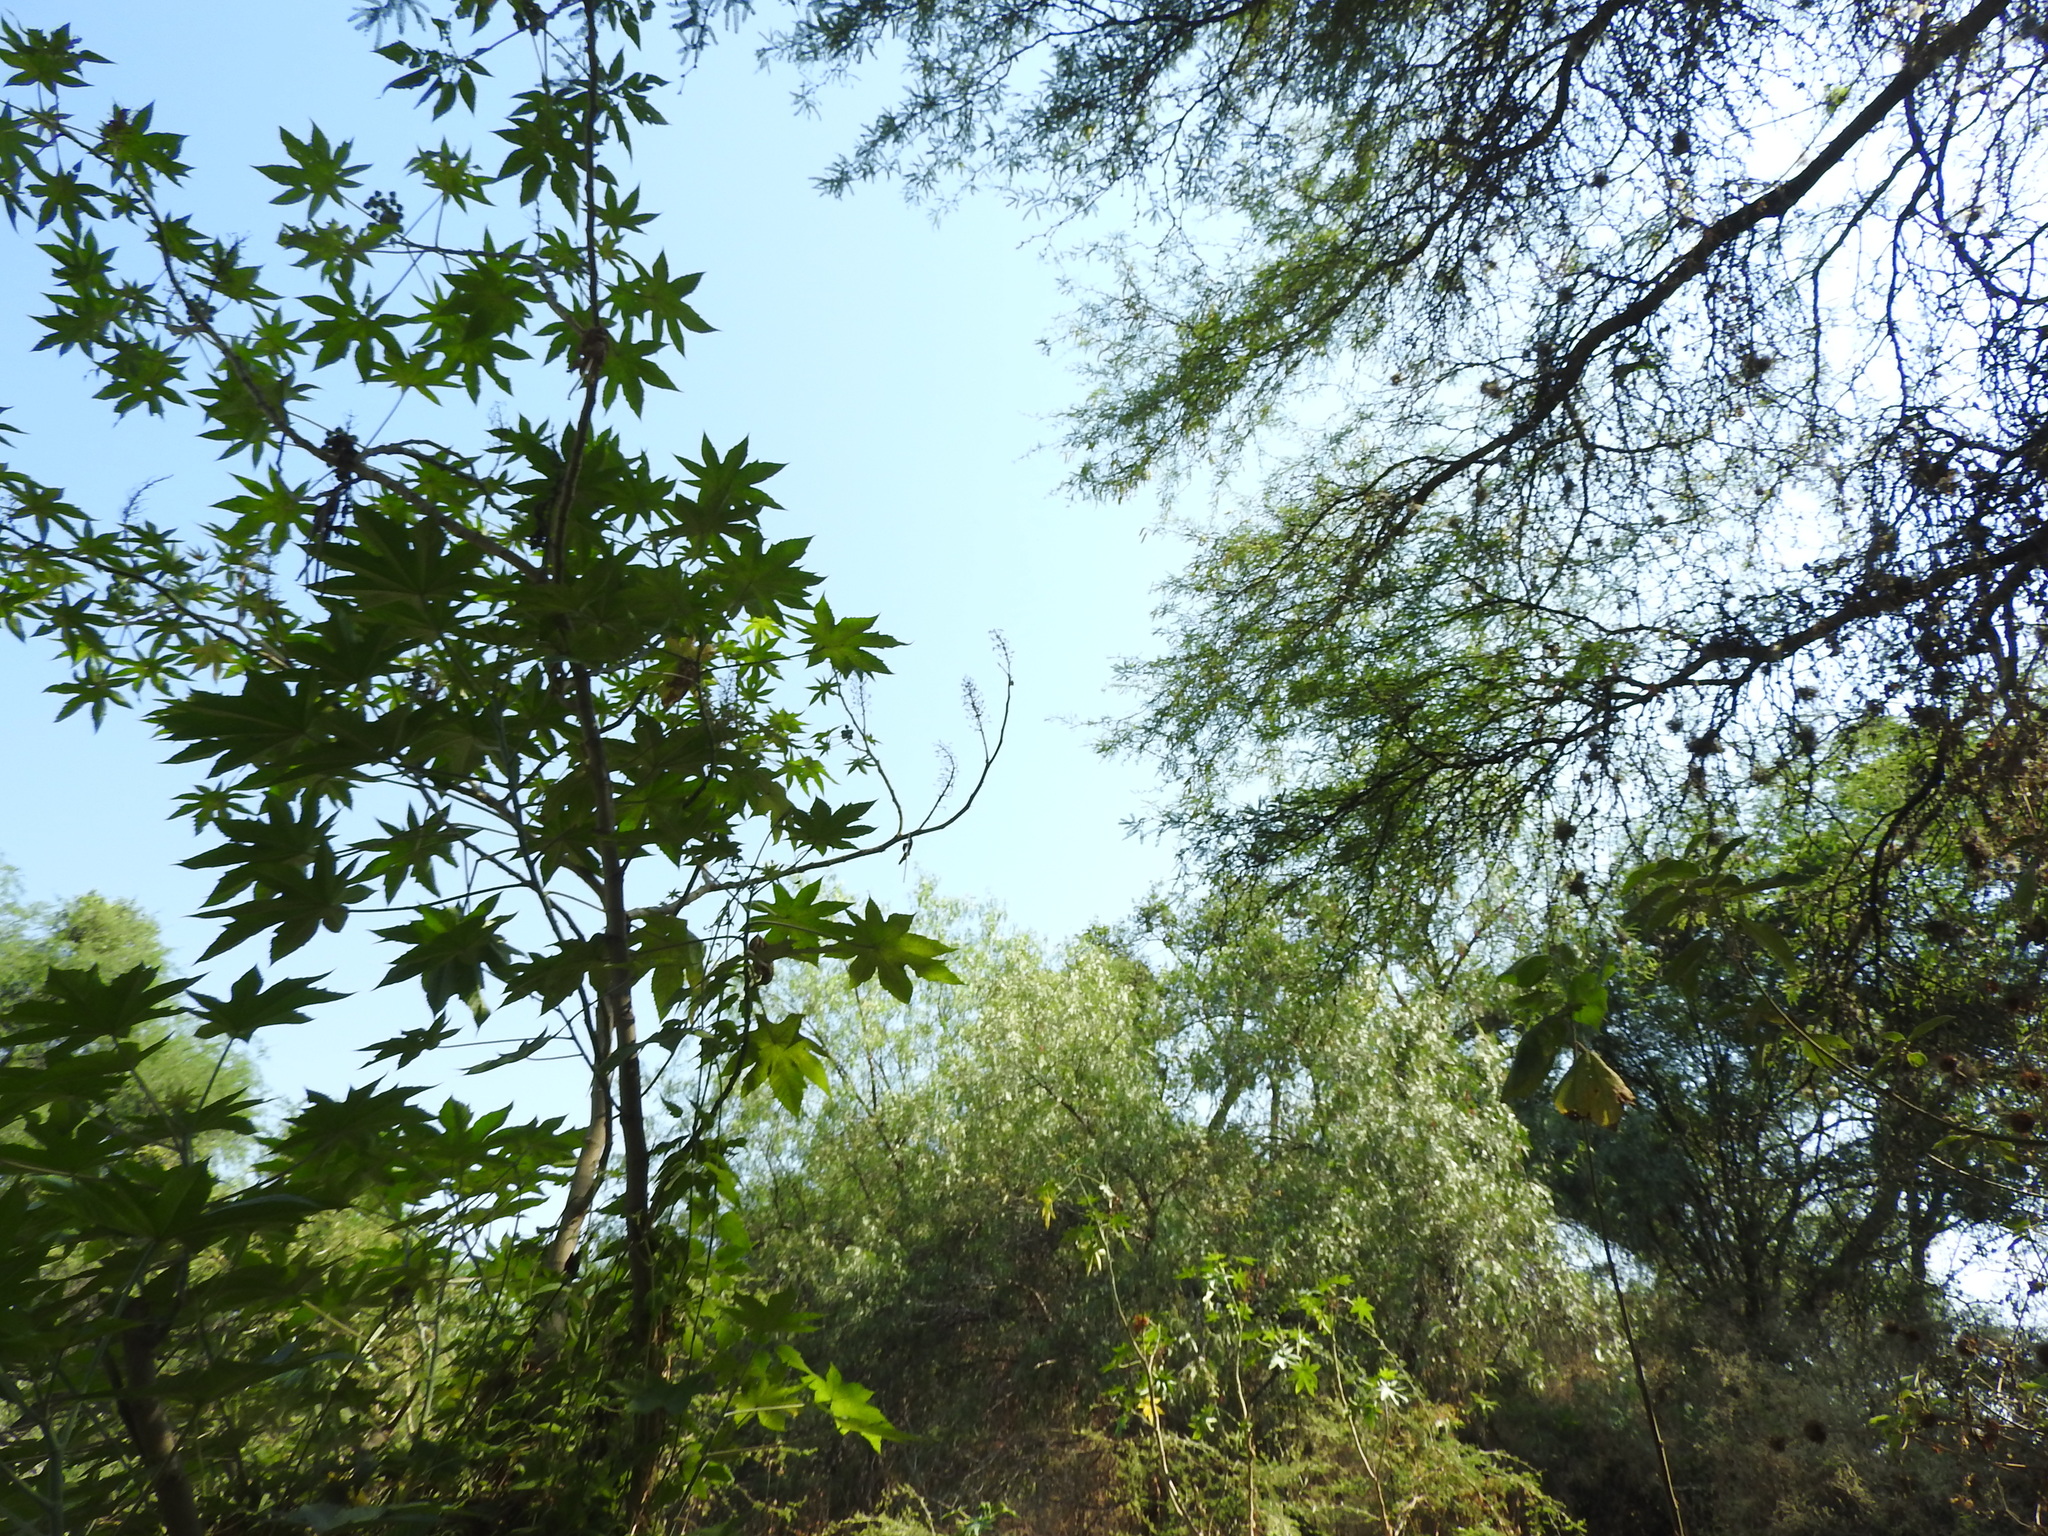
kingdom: Plantae
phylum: Tracheophyta
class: Magnoliopsida
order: Malpighiales
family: Euphorbiaceae
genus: Ricinus
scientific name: Ricinus communis
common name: Castor-oil-plant
